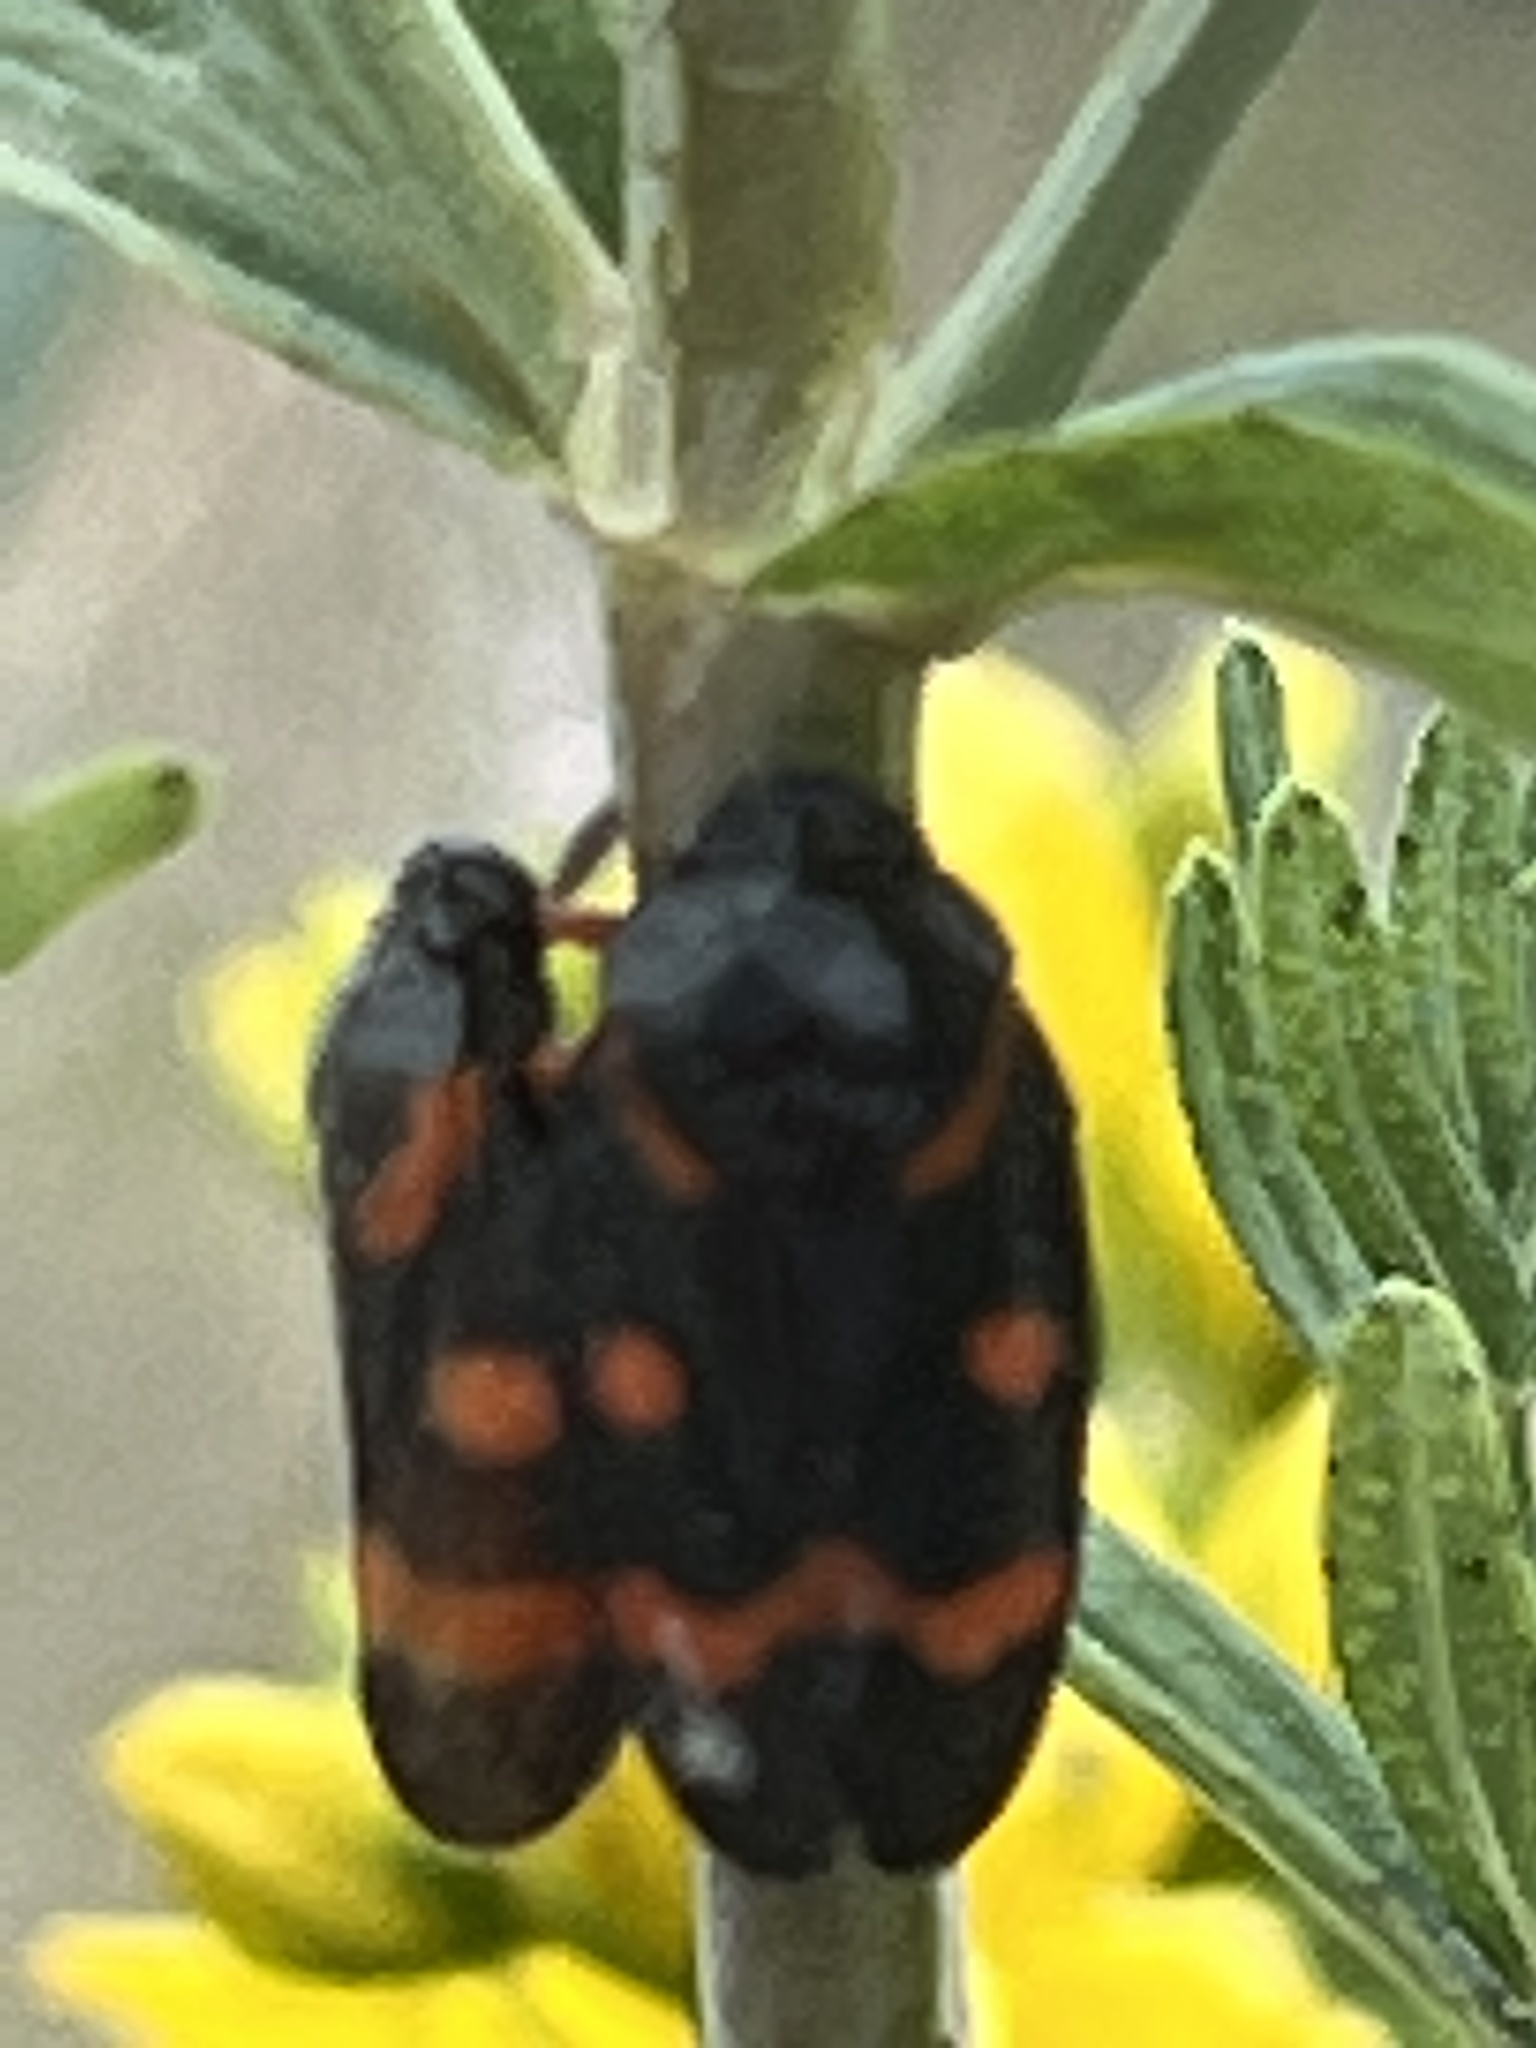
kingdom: Animalia
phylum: Arthropoda
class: Insecta
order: Hemiptera
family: Cercopidae
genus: Cercopis
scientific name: Cercopis intermedia
